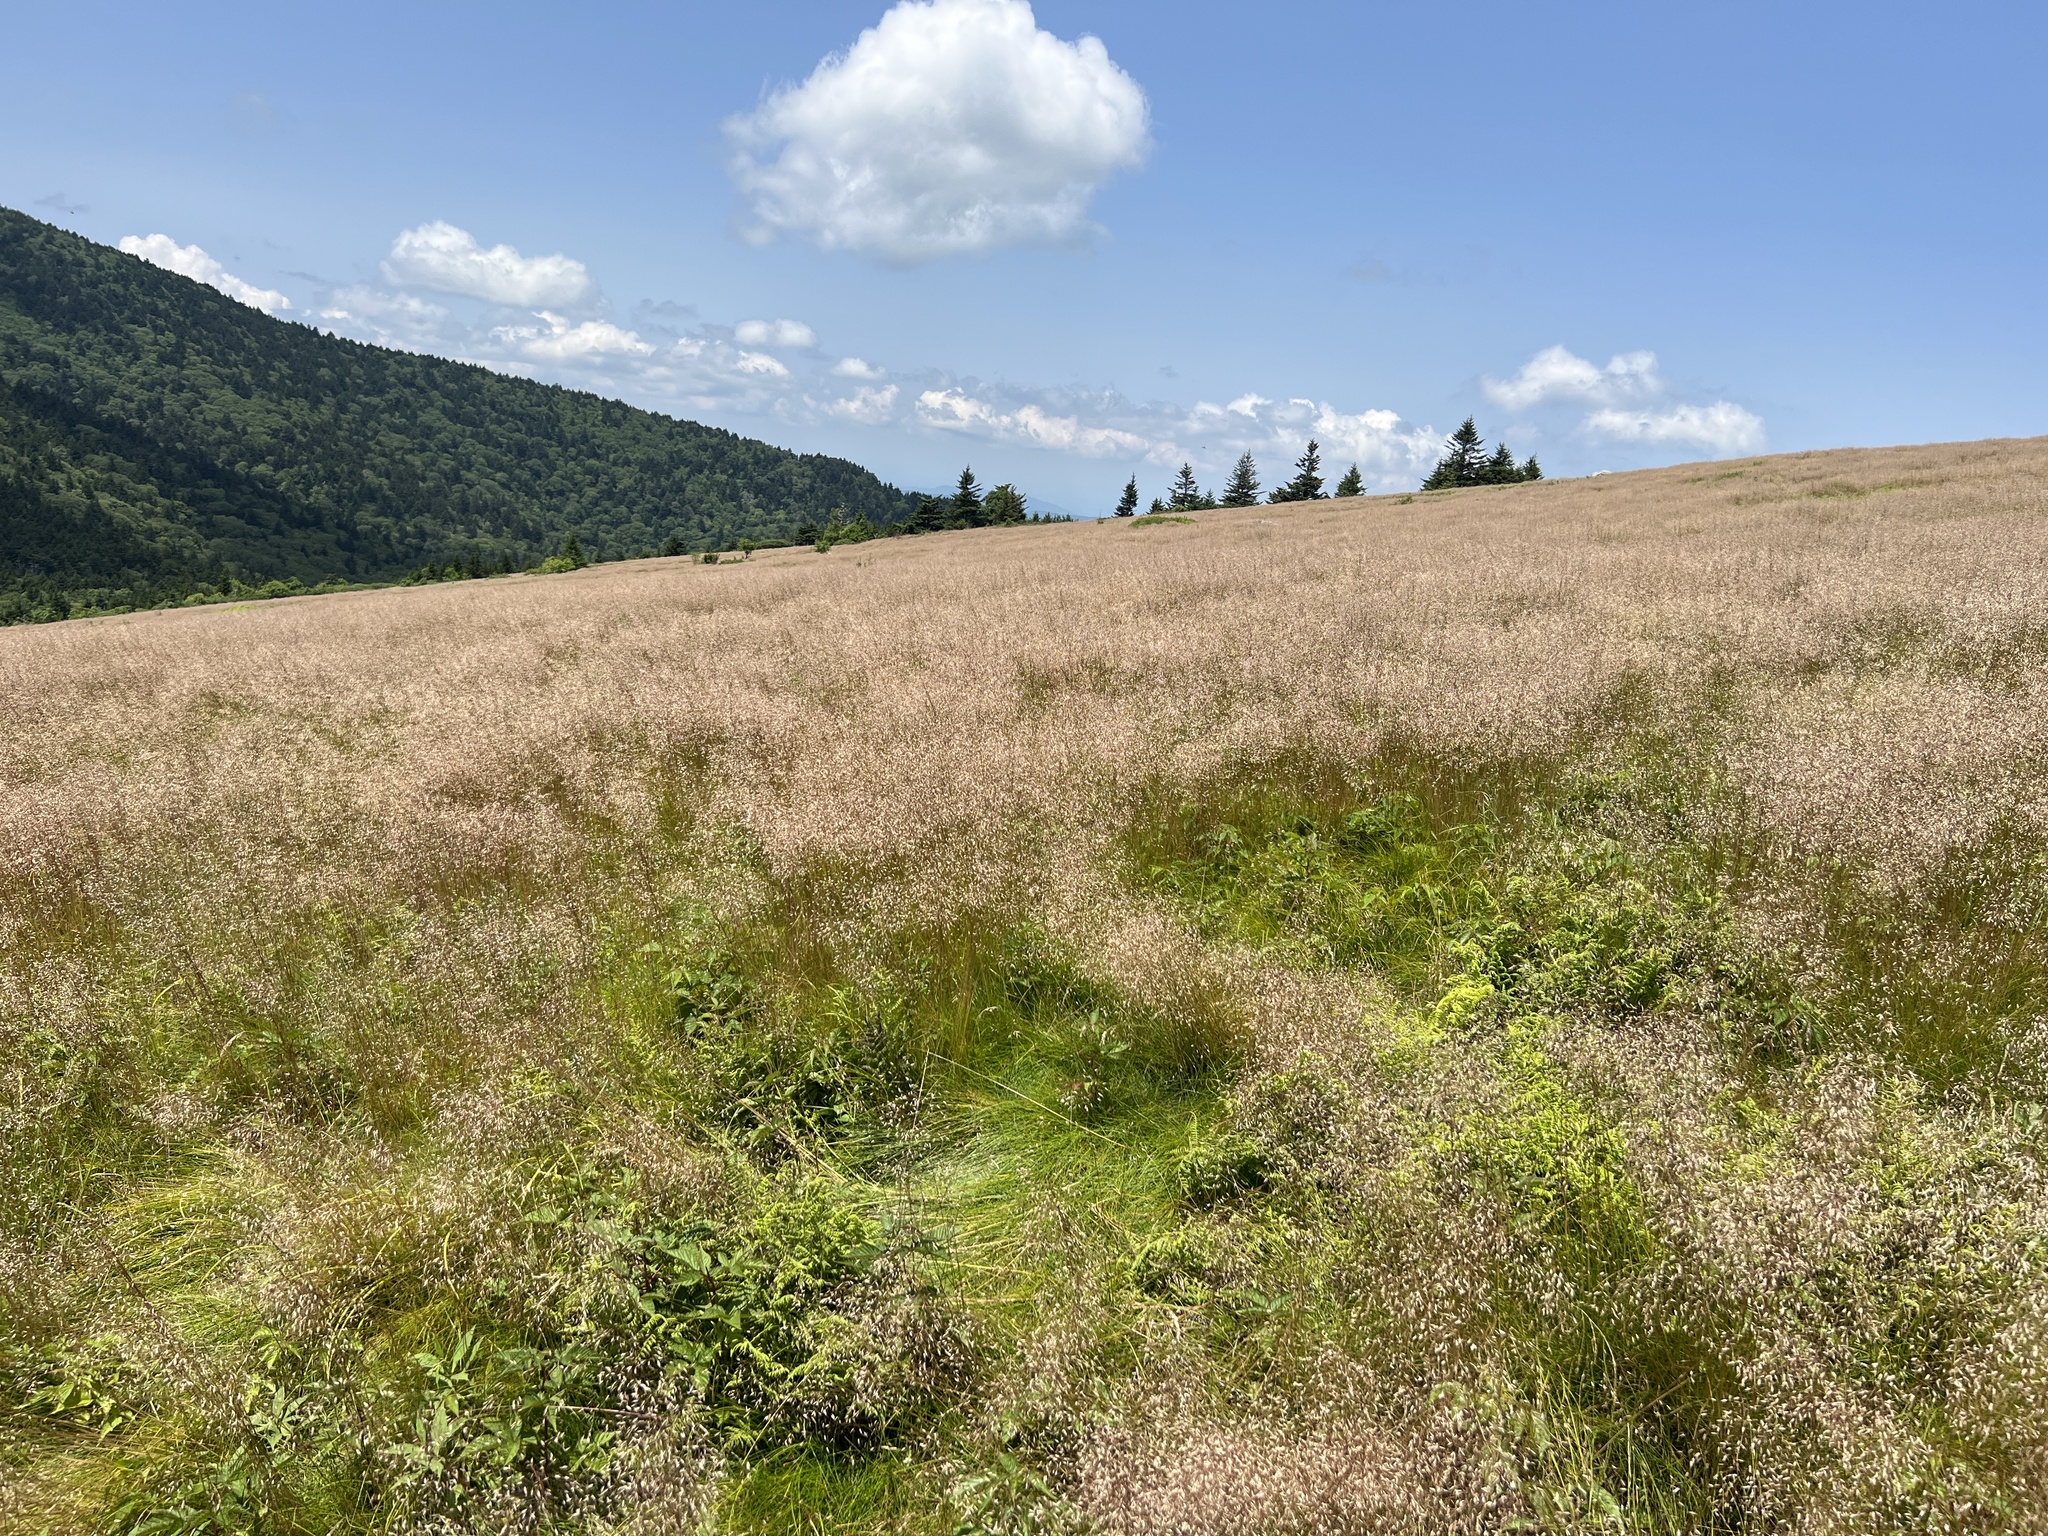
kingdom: Plantae
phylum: Tracheophyta
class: Liliopsida
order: Poales
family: Poaceae
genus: Avenella
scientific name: Avenella flexuosa
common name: Wavy hairgrass
